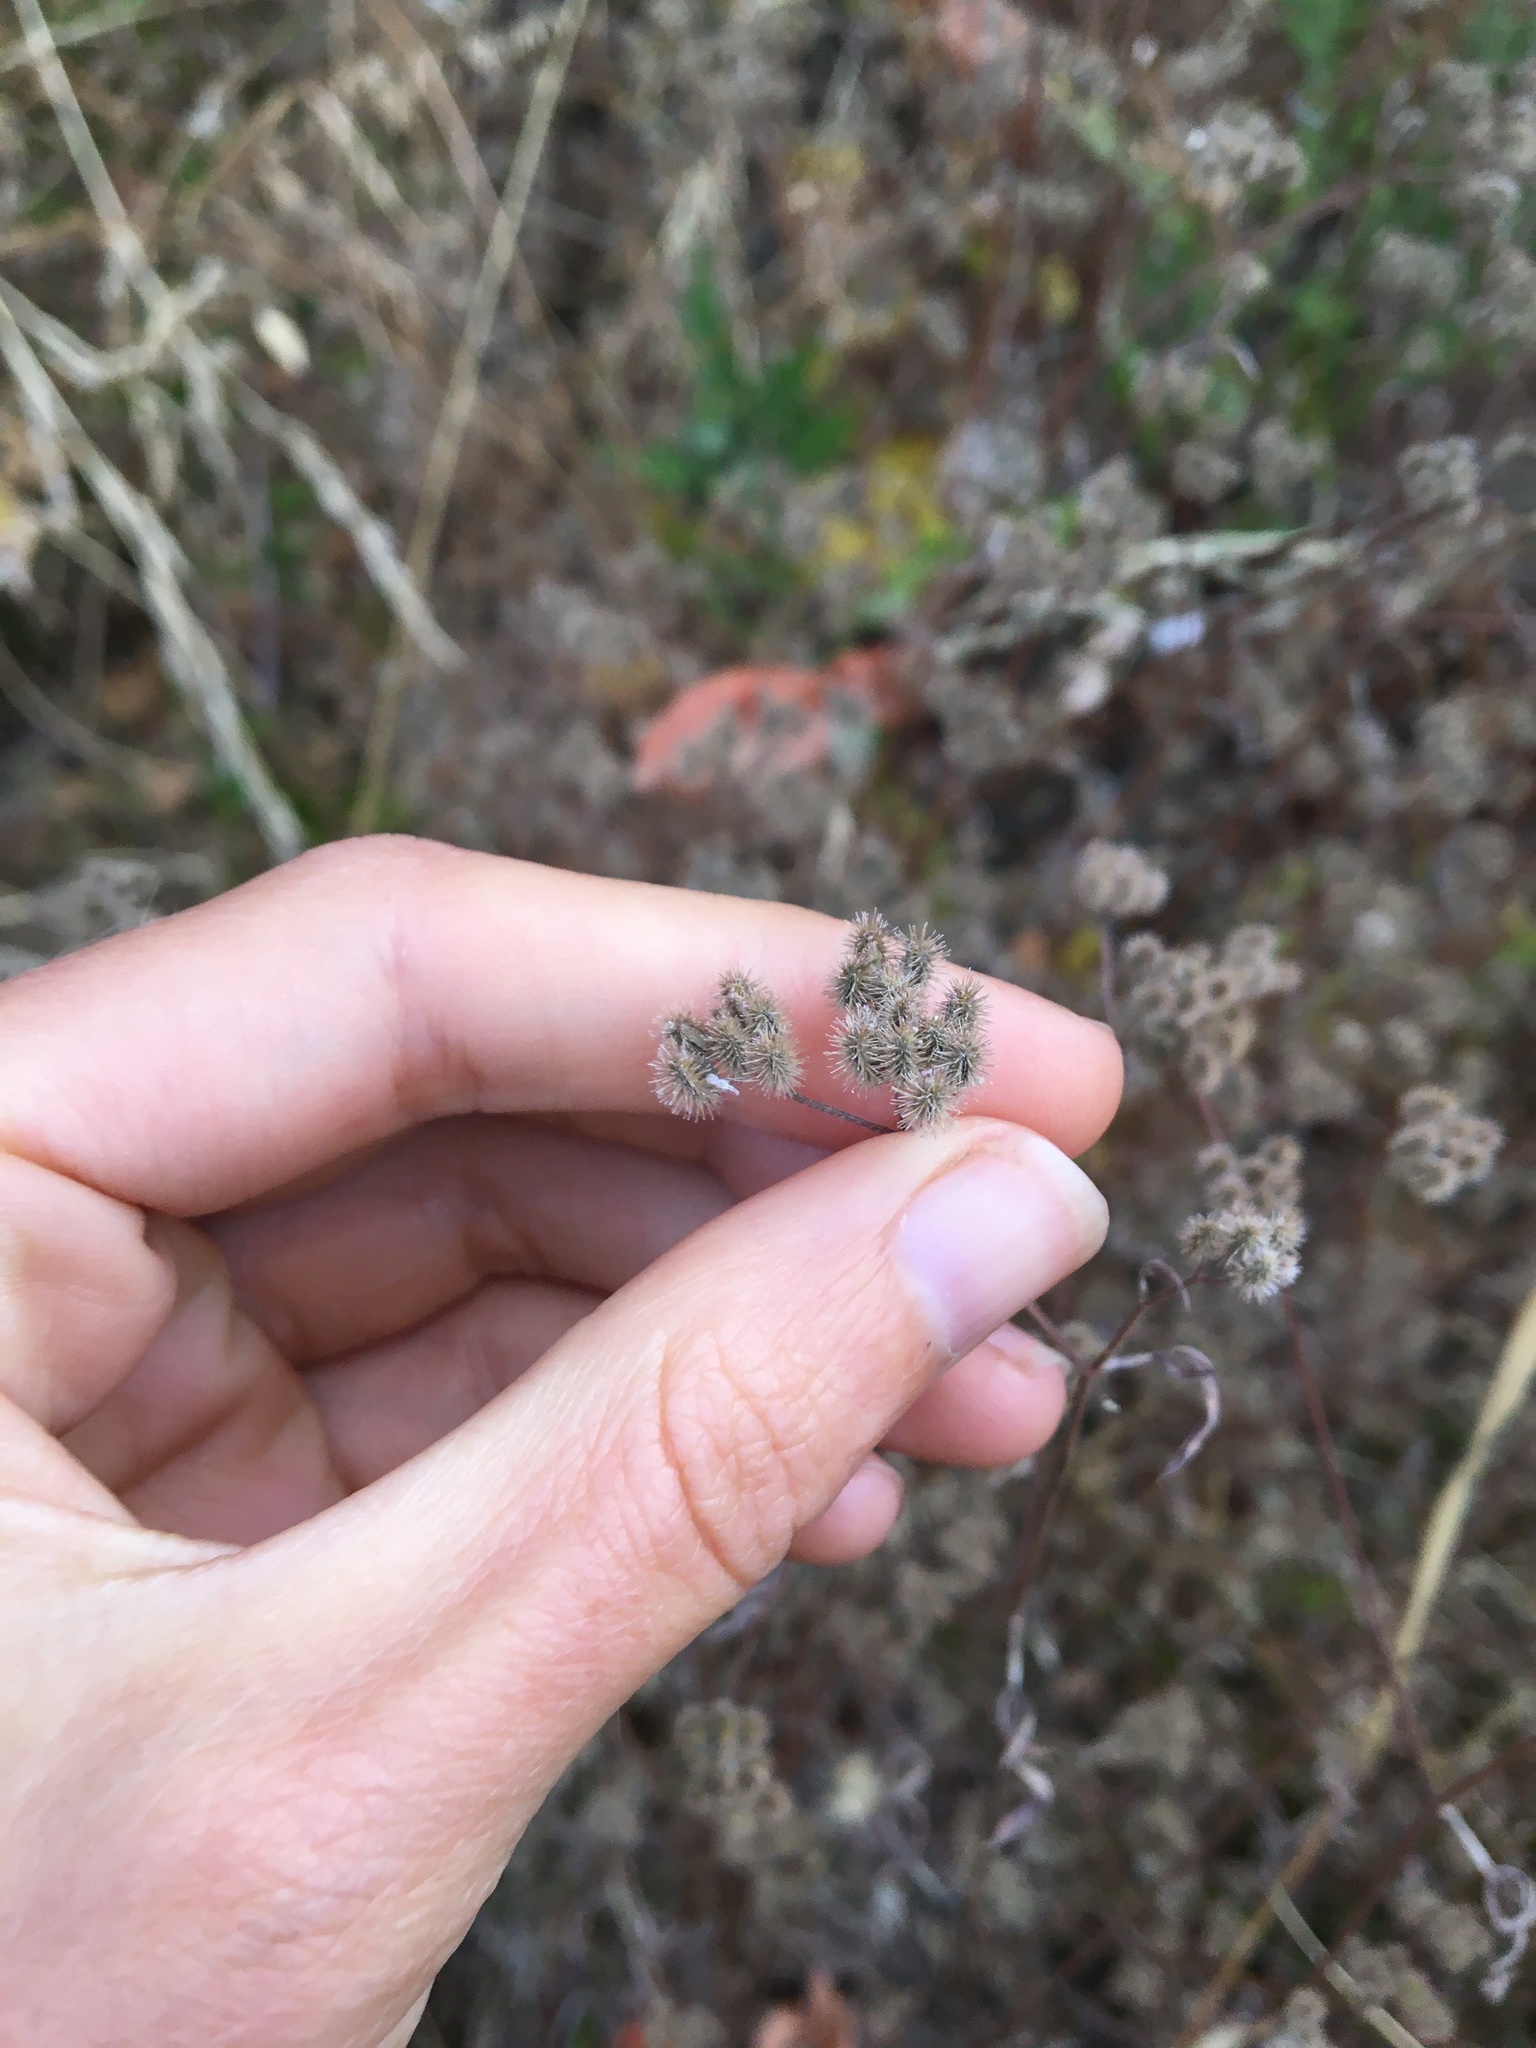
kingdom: Plantae
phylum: Tracheophyta
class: Magnoliopsida
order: Apiales
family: Apiaceae
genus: Torilis
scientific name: Torilis arvensis
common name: Spreading hedge-parsley
